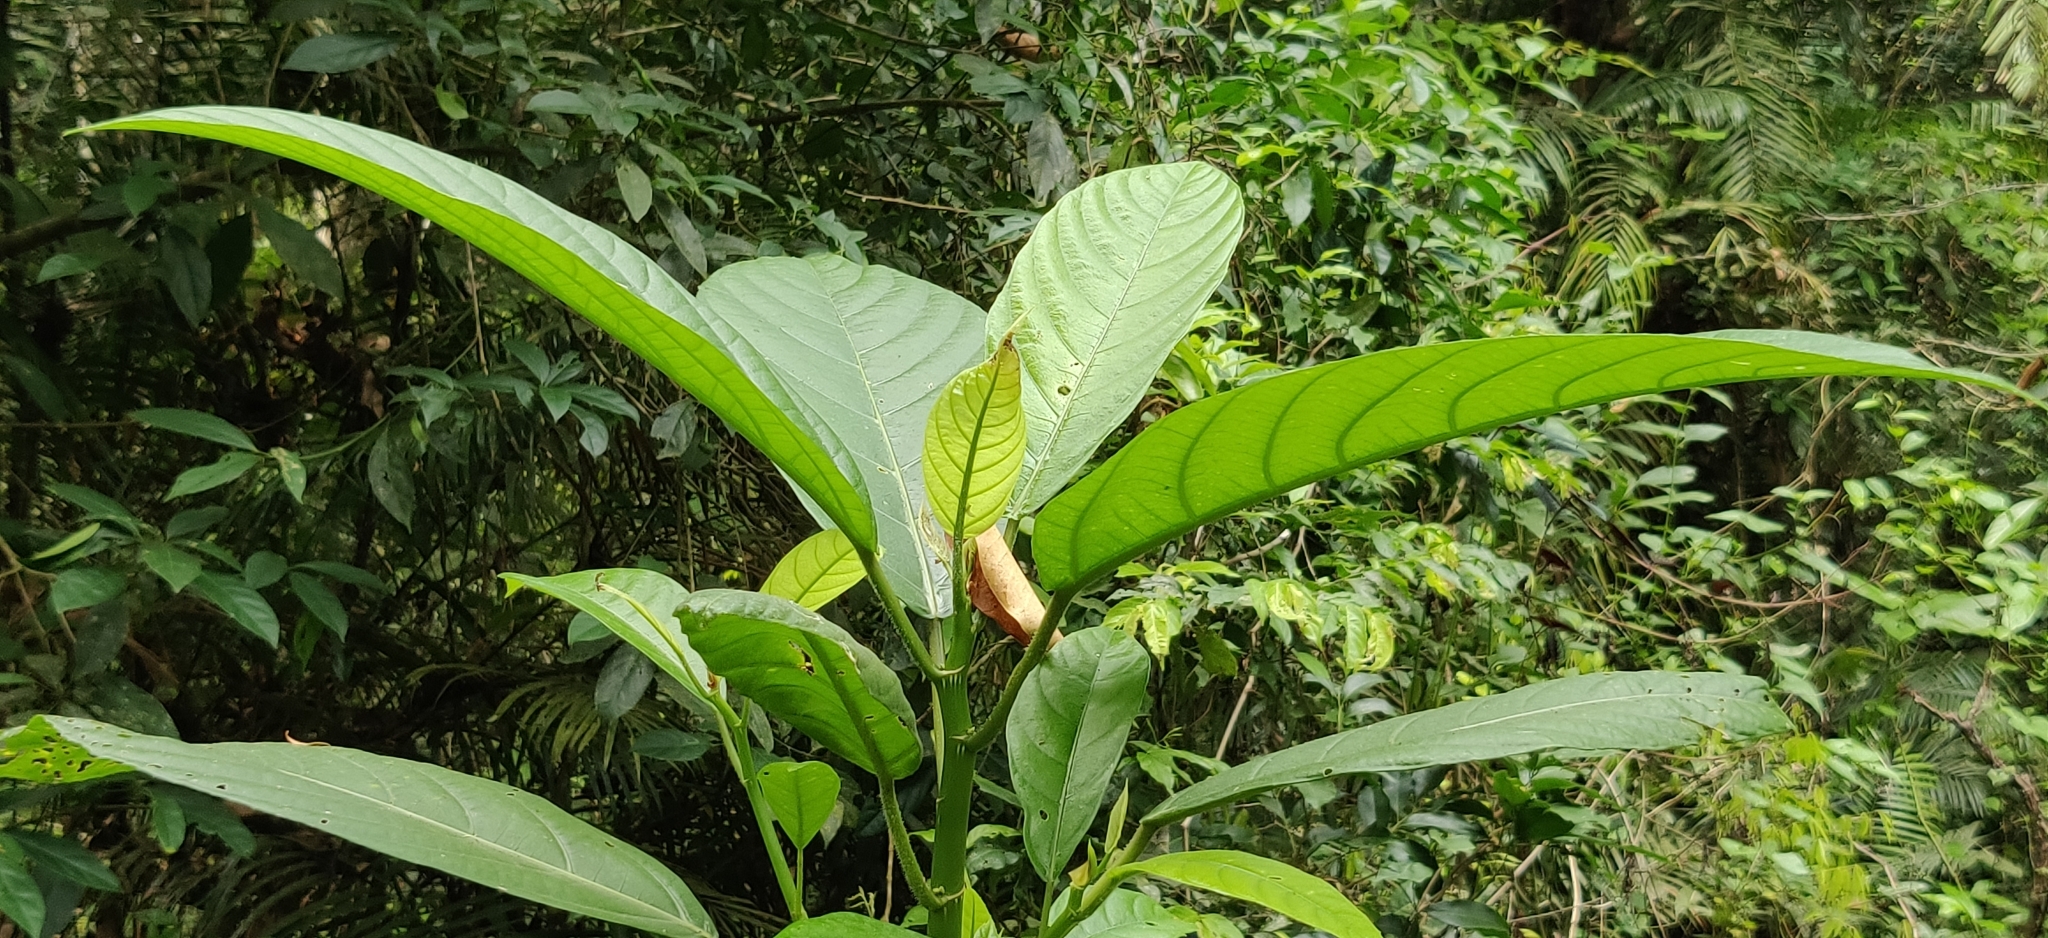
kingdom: Plantae
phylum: Tracheophyta
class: Magnoliopsida
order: Rosales
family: Urticaceae
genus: Dendrocnide
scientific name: Dendrocnide sinuata
